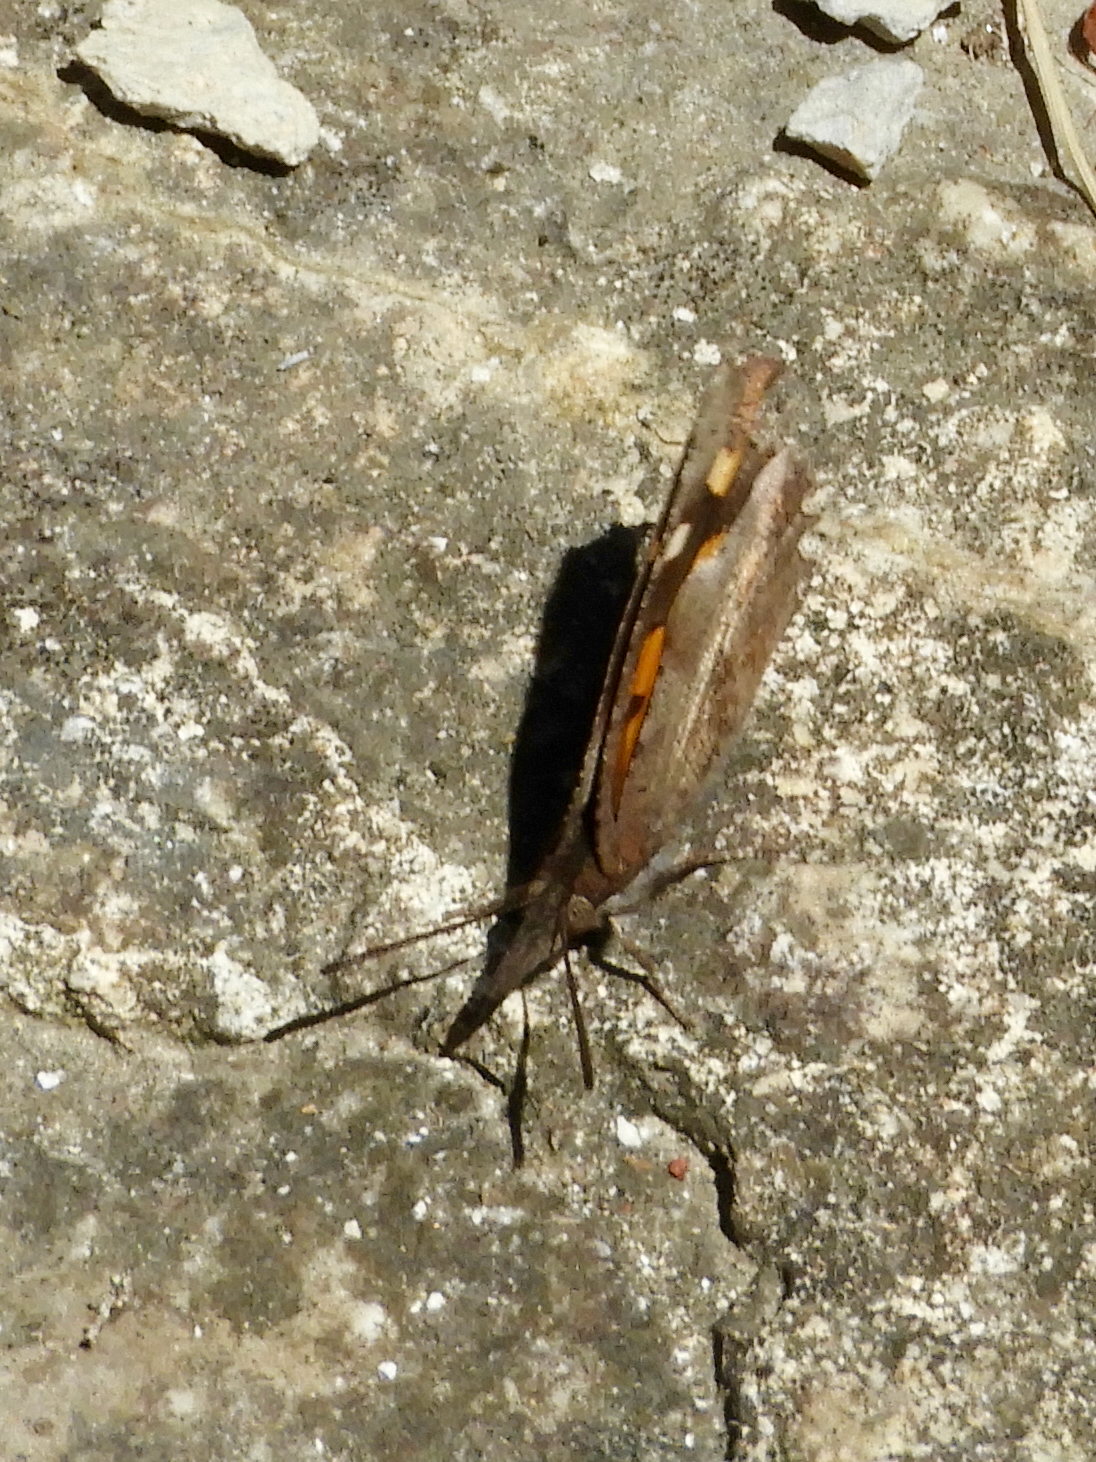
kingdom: Animalia
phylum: Arthropoda
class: Insecta
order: Lepidoptera
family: Nymphalidae
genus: Libythea
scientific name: Libythea celtis
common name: Nettle-tree butterfly
